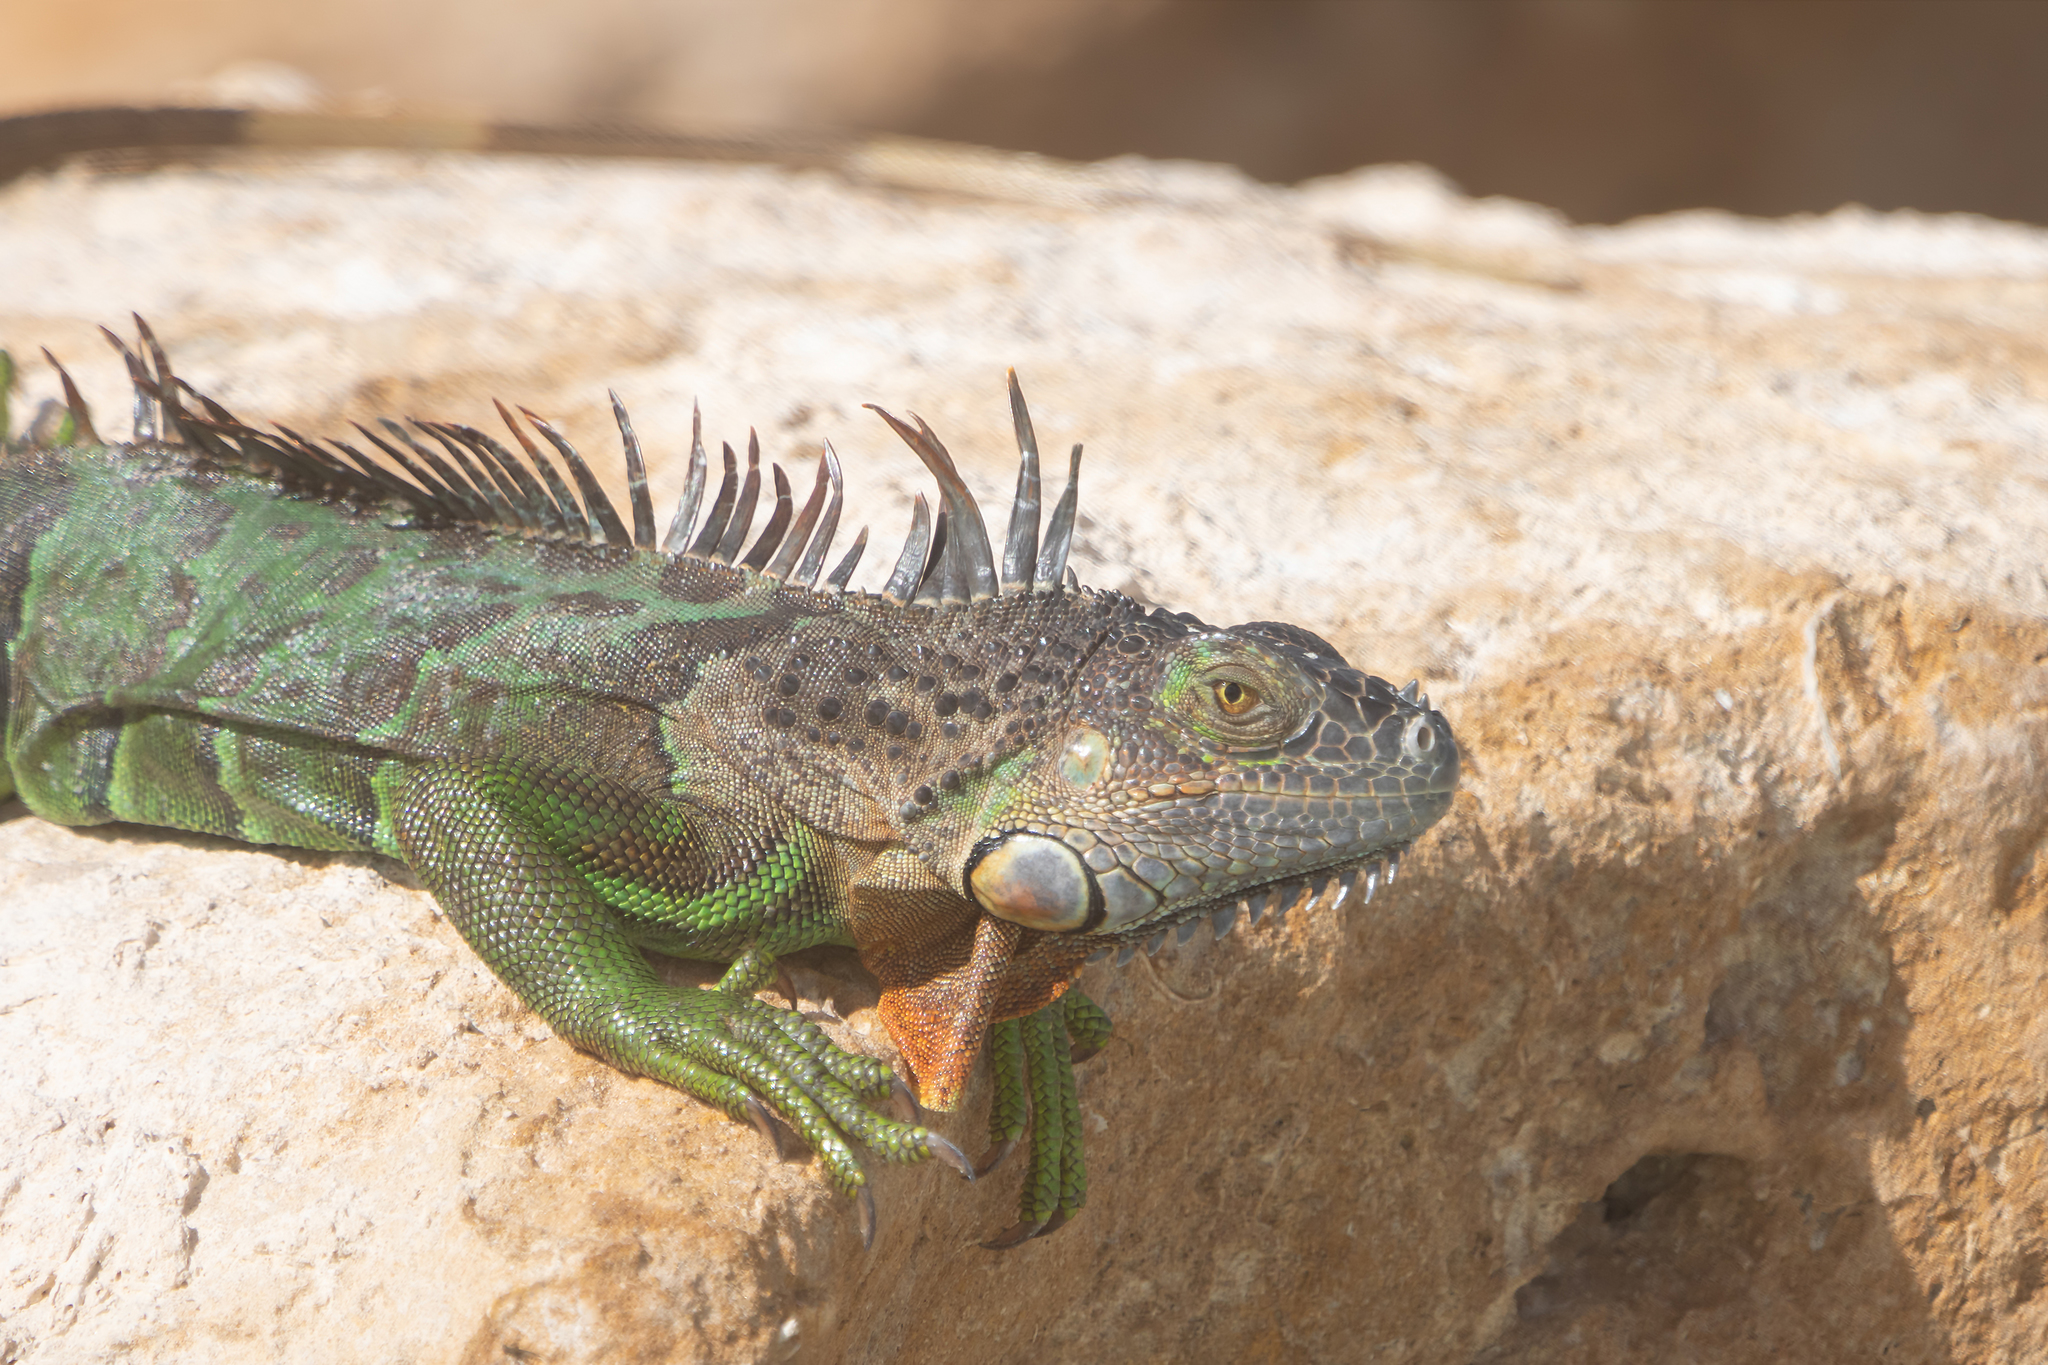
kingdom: Animalia
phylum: Chordata
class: Squamata
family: Iguanidae
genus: Iguana
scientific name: Iguana iguana
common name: Green iguana
